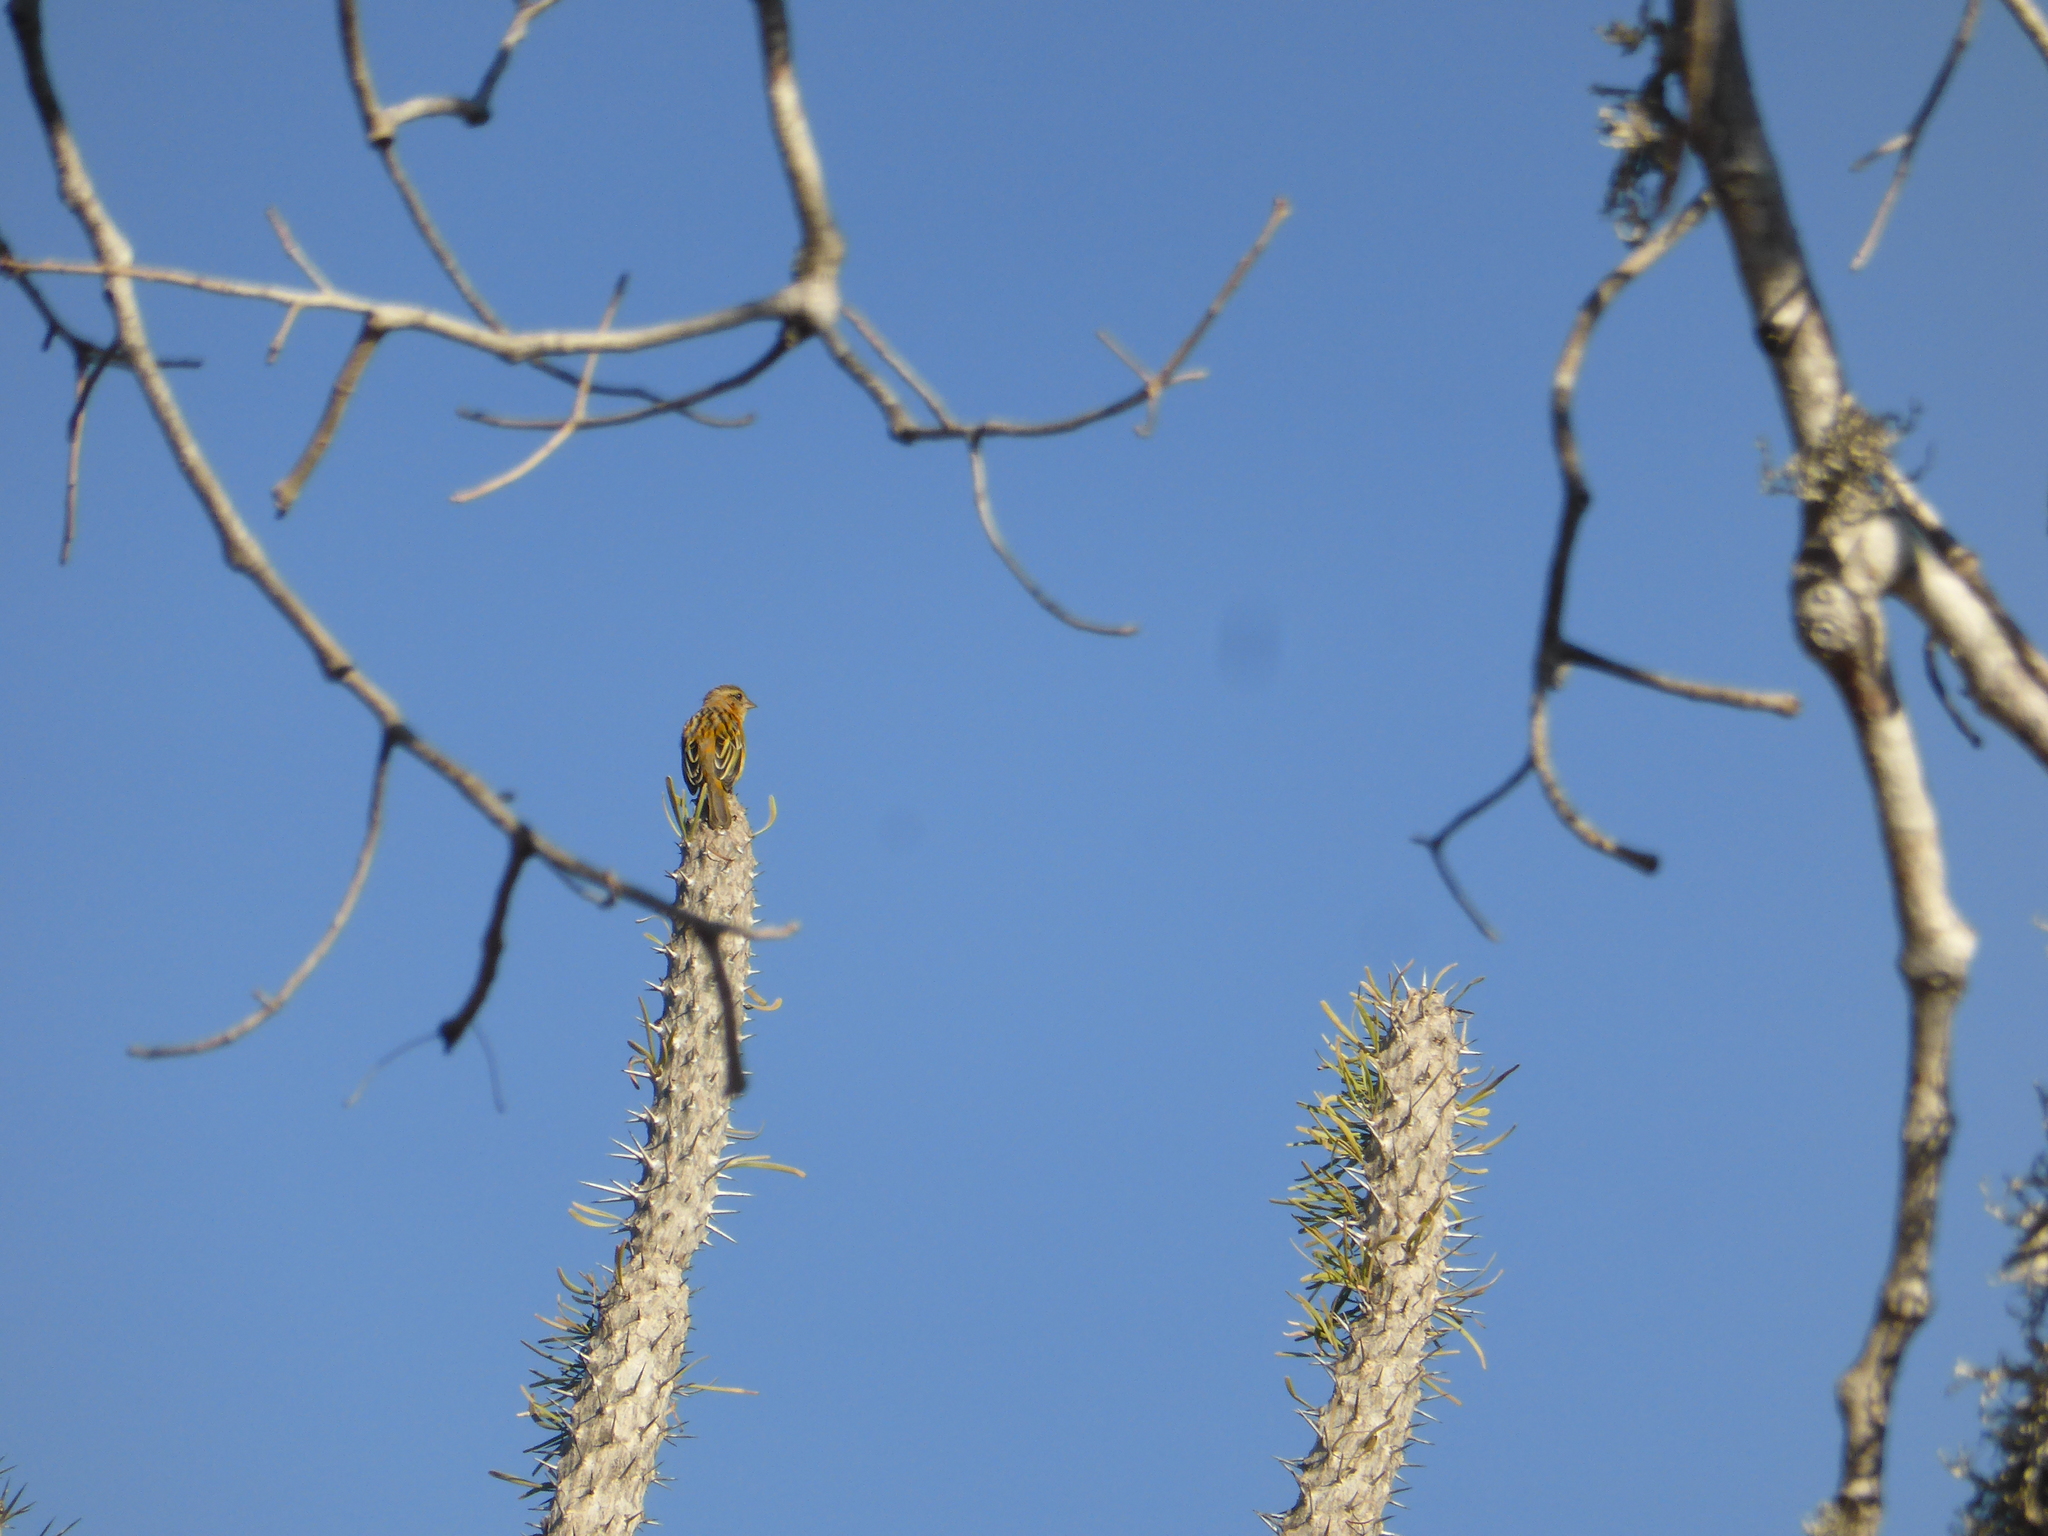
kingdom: Animalia
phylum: Chordata
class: Aves
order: Passeriformes
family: Ploceidae
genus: Foudia
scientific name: Foudia madagascariensis
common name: Red fody
